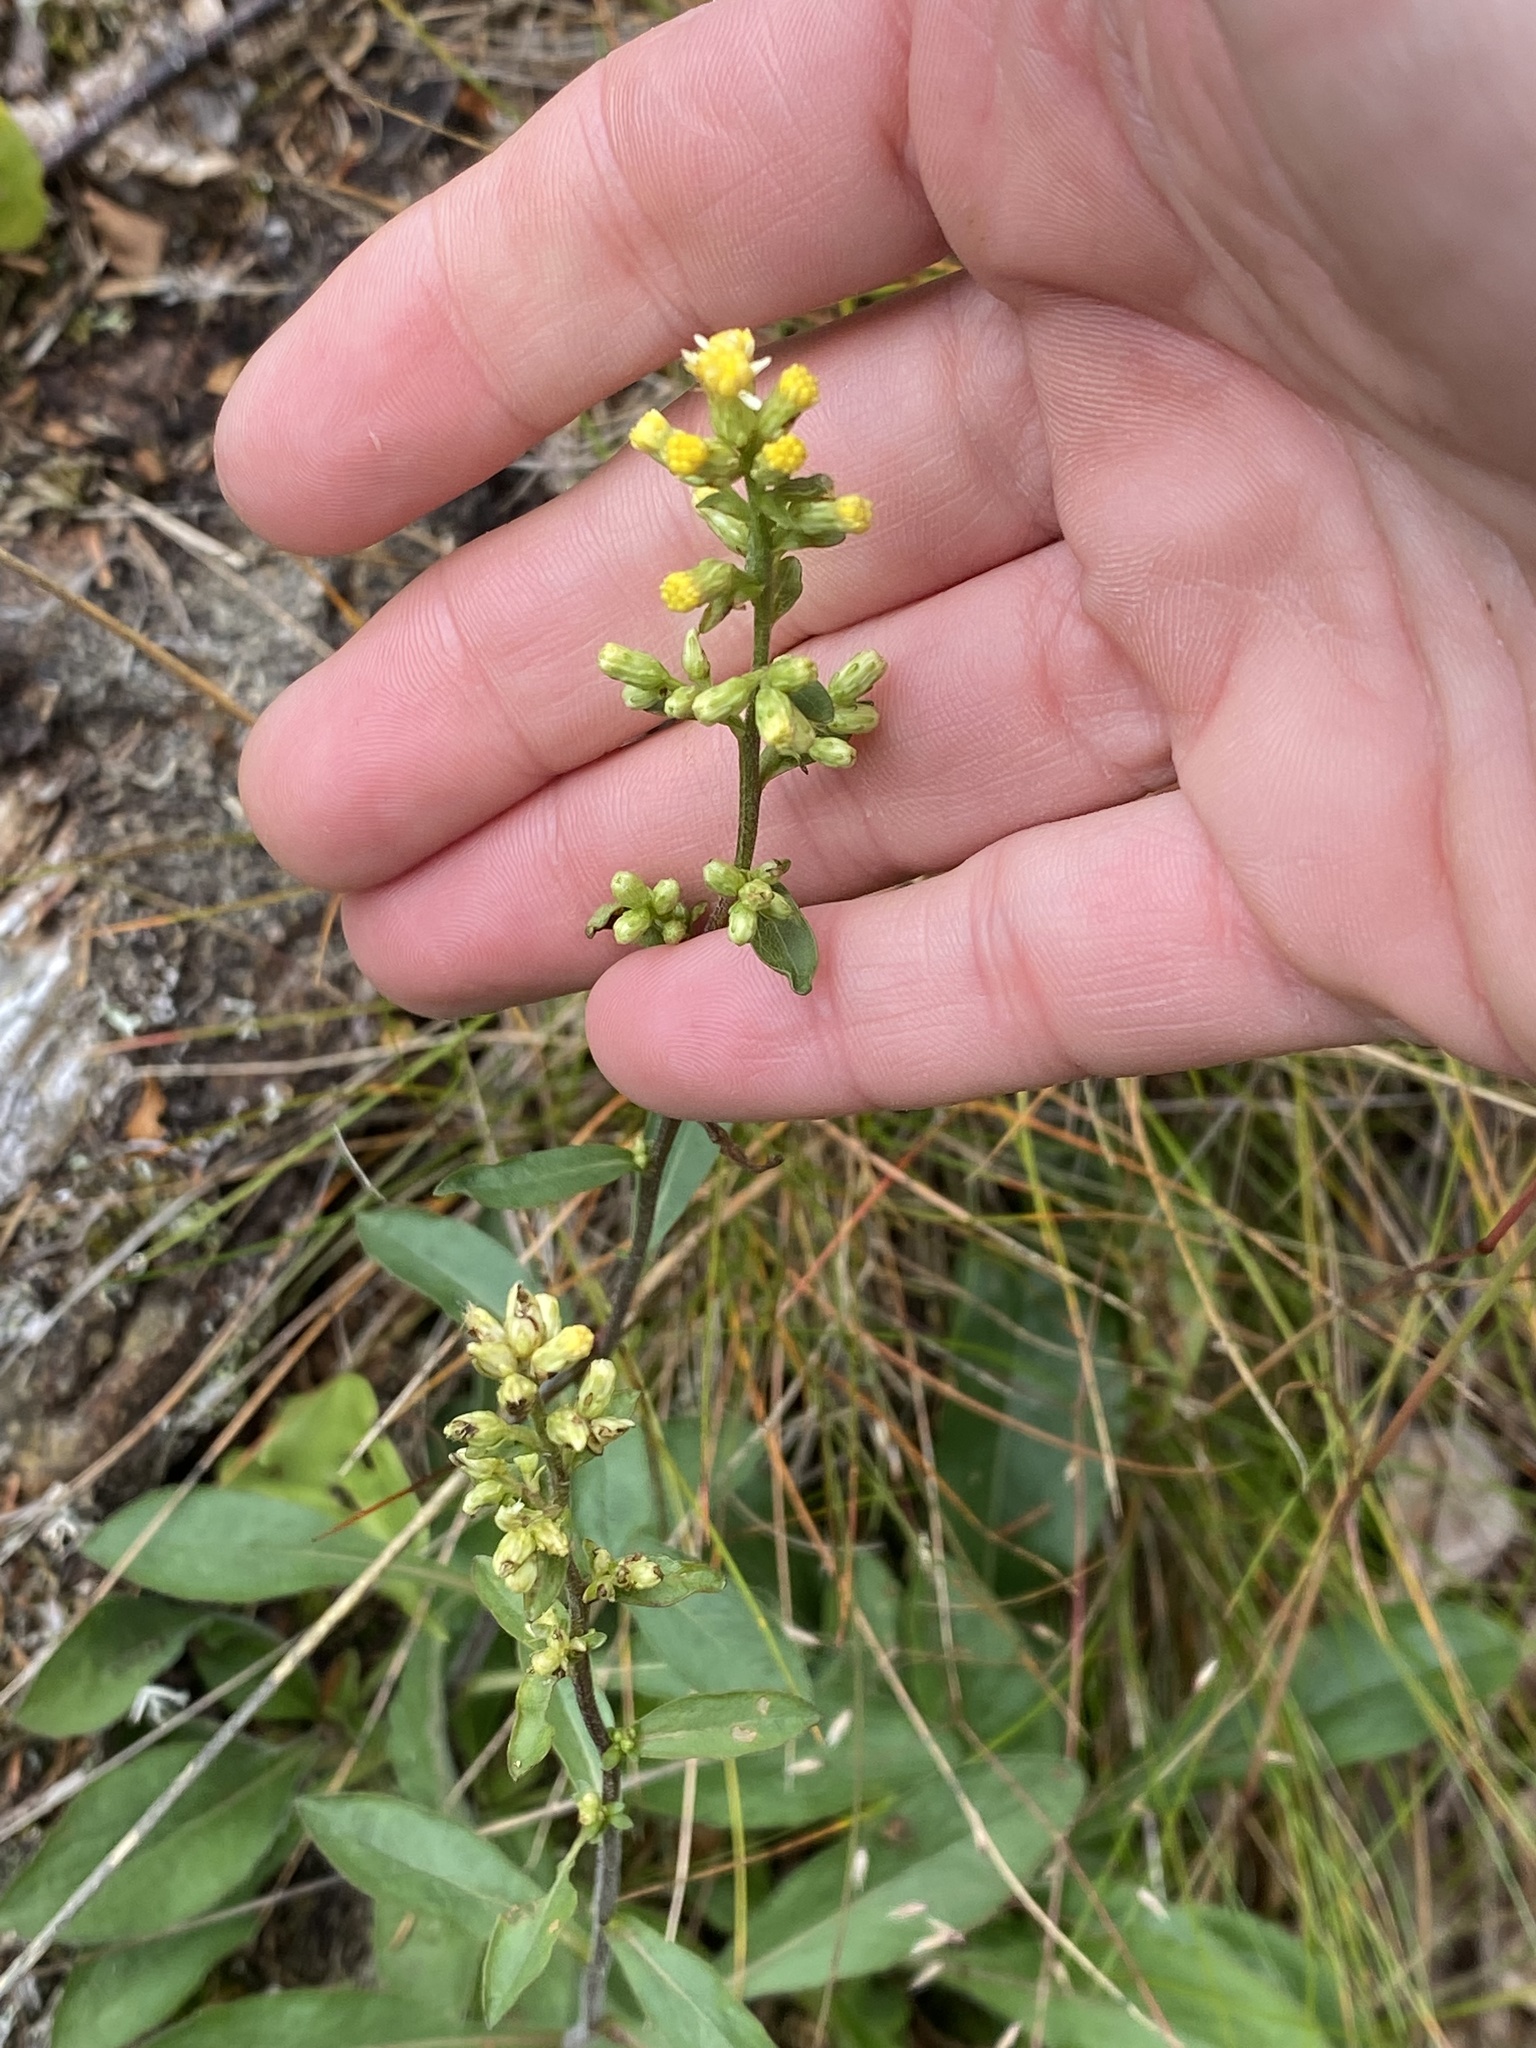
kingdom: Plantae
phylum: Tracheophyta
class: Magnoliopsida
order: Asterales
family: Asteraceae
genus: Solidago
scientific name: Solidago bicolor
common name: Silverrod
